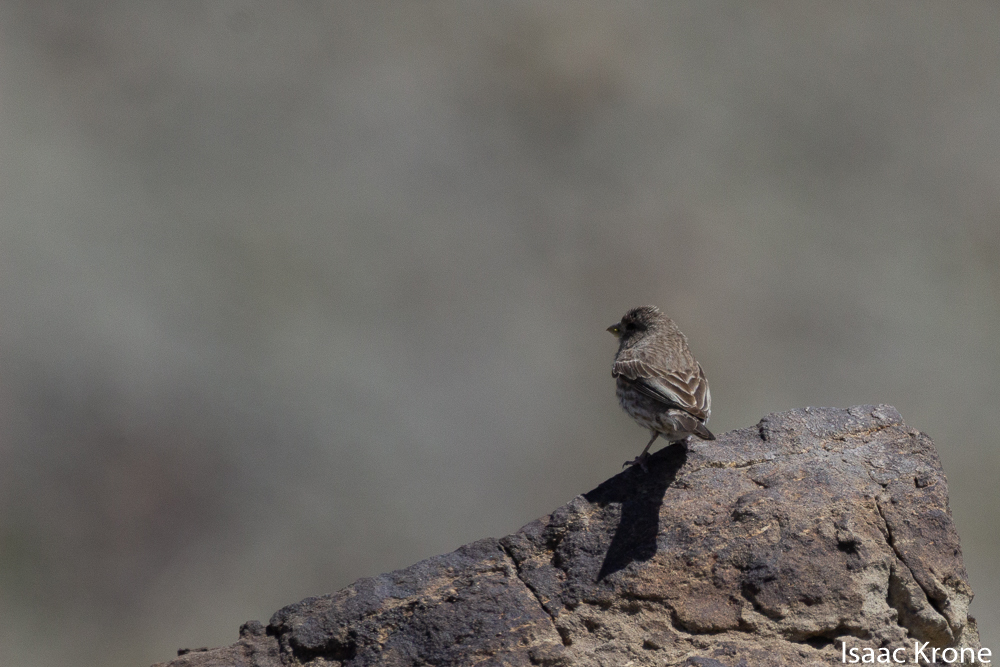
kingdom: Animalia
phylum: Chordata
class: Aves
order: Passeriformes
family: Fringillidae
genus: Haemorhous
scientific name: Haemorhous mexicanus
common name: House finch
